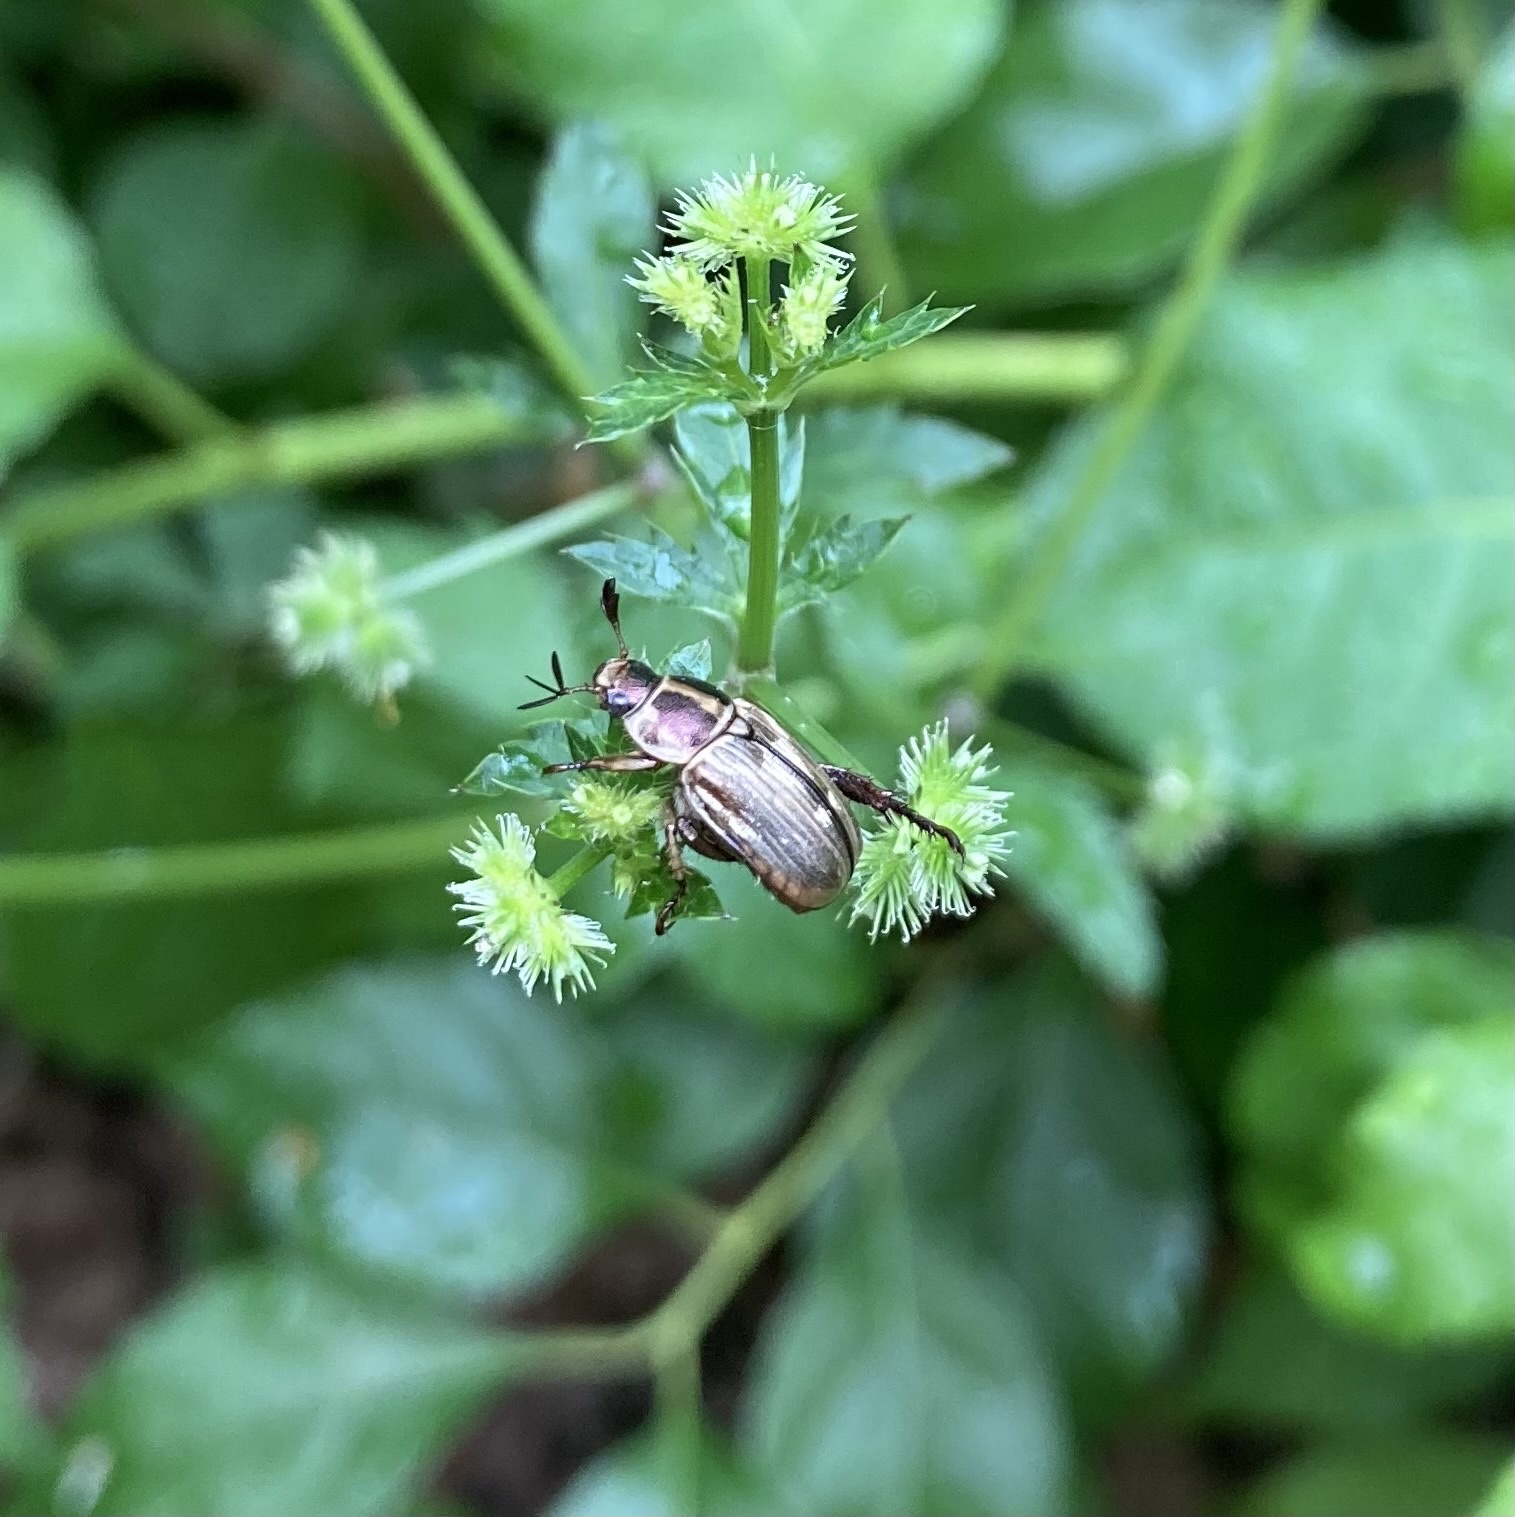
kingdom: Animalia
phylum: Arthropoda
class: Insecta
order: Coleoptera
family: Scarabaeidae
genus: Exomala
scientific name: Exomala orientalis
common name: Oriental beetle
